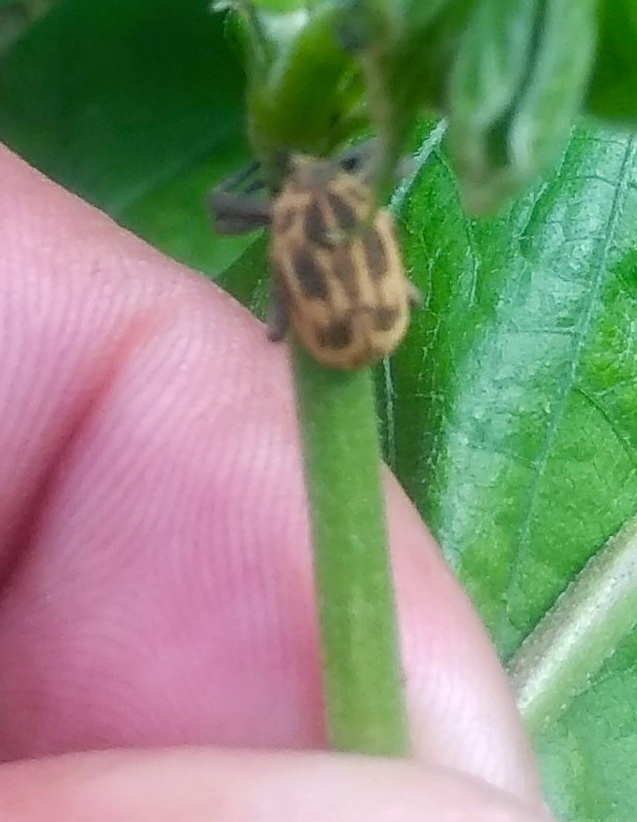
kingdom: Animalia
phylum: Arthropoda
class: Insecta
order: Coleoptera
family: Curculionidae
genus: Sternuchopsis
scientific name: Sternuchopsis
